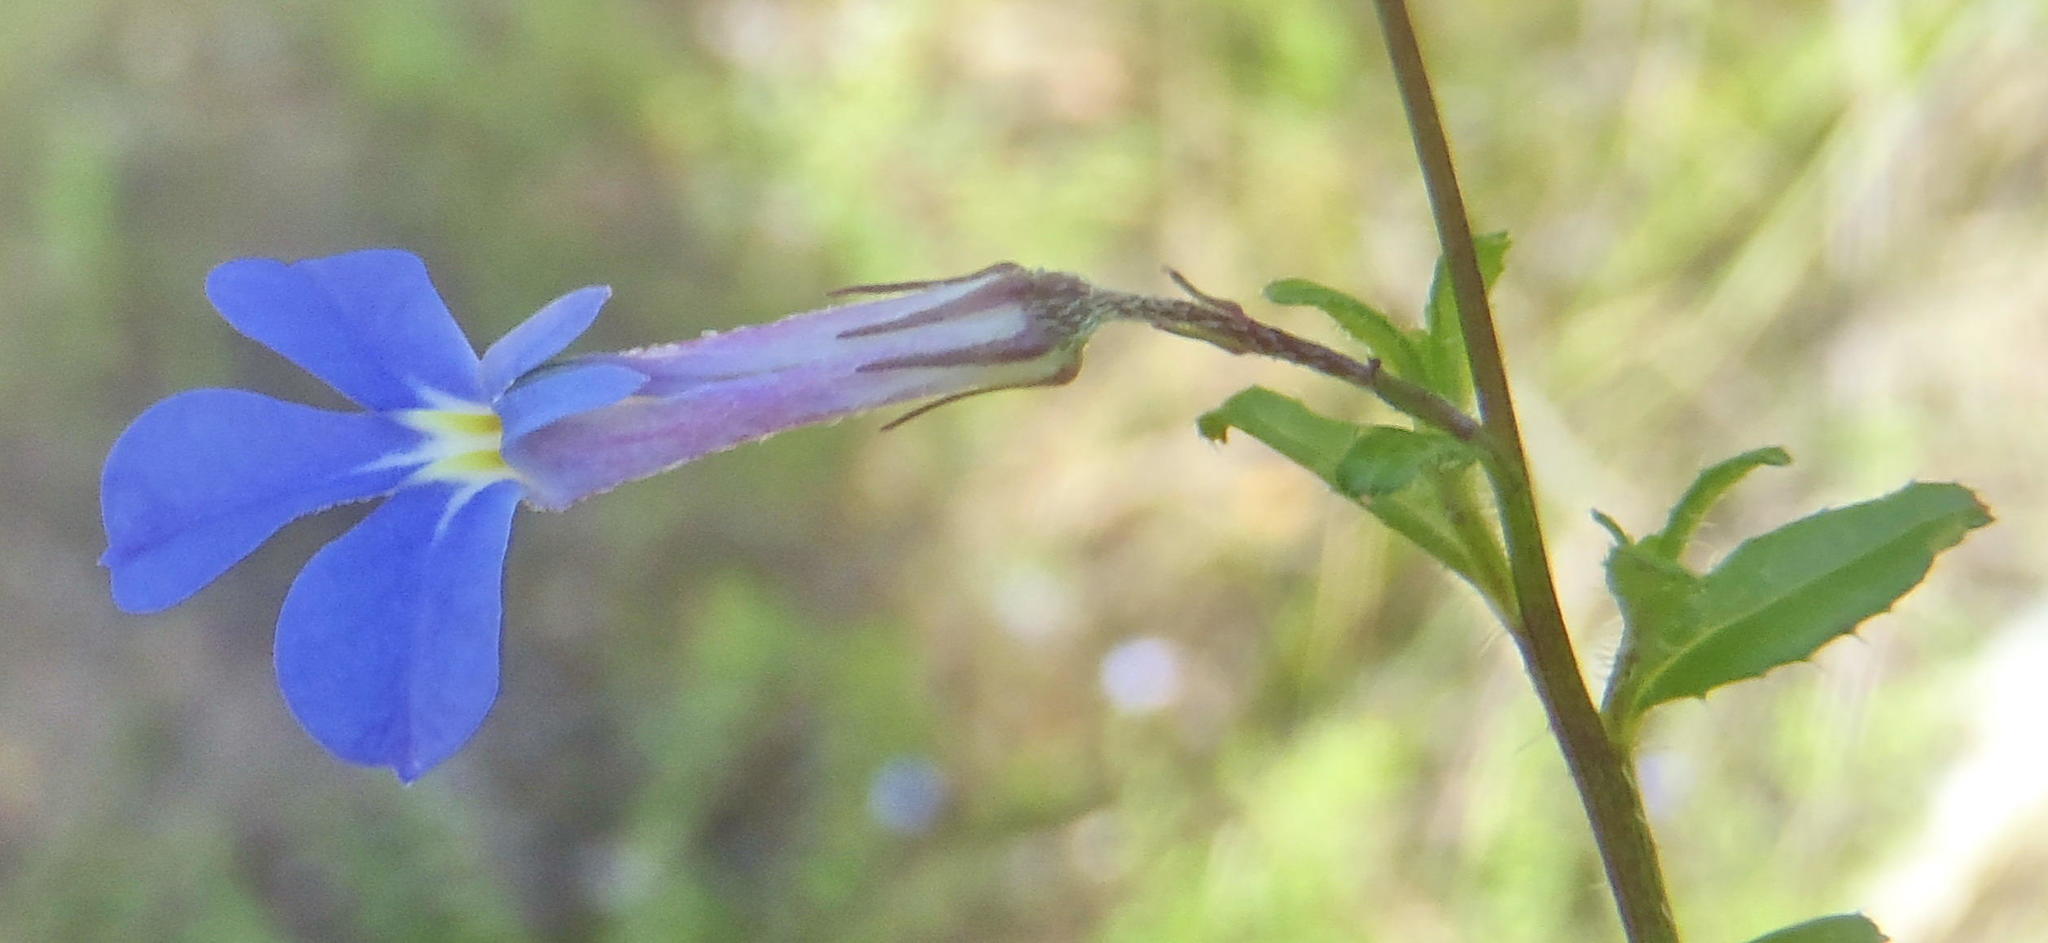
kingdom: Plantae
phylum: Tracheophyta
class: Magnoliopsida
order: Asterales
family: Campanulaceae
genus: Lobelia
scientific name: Lobelia neglecta
